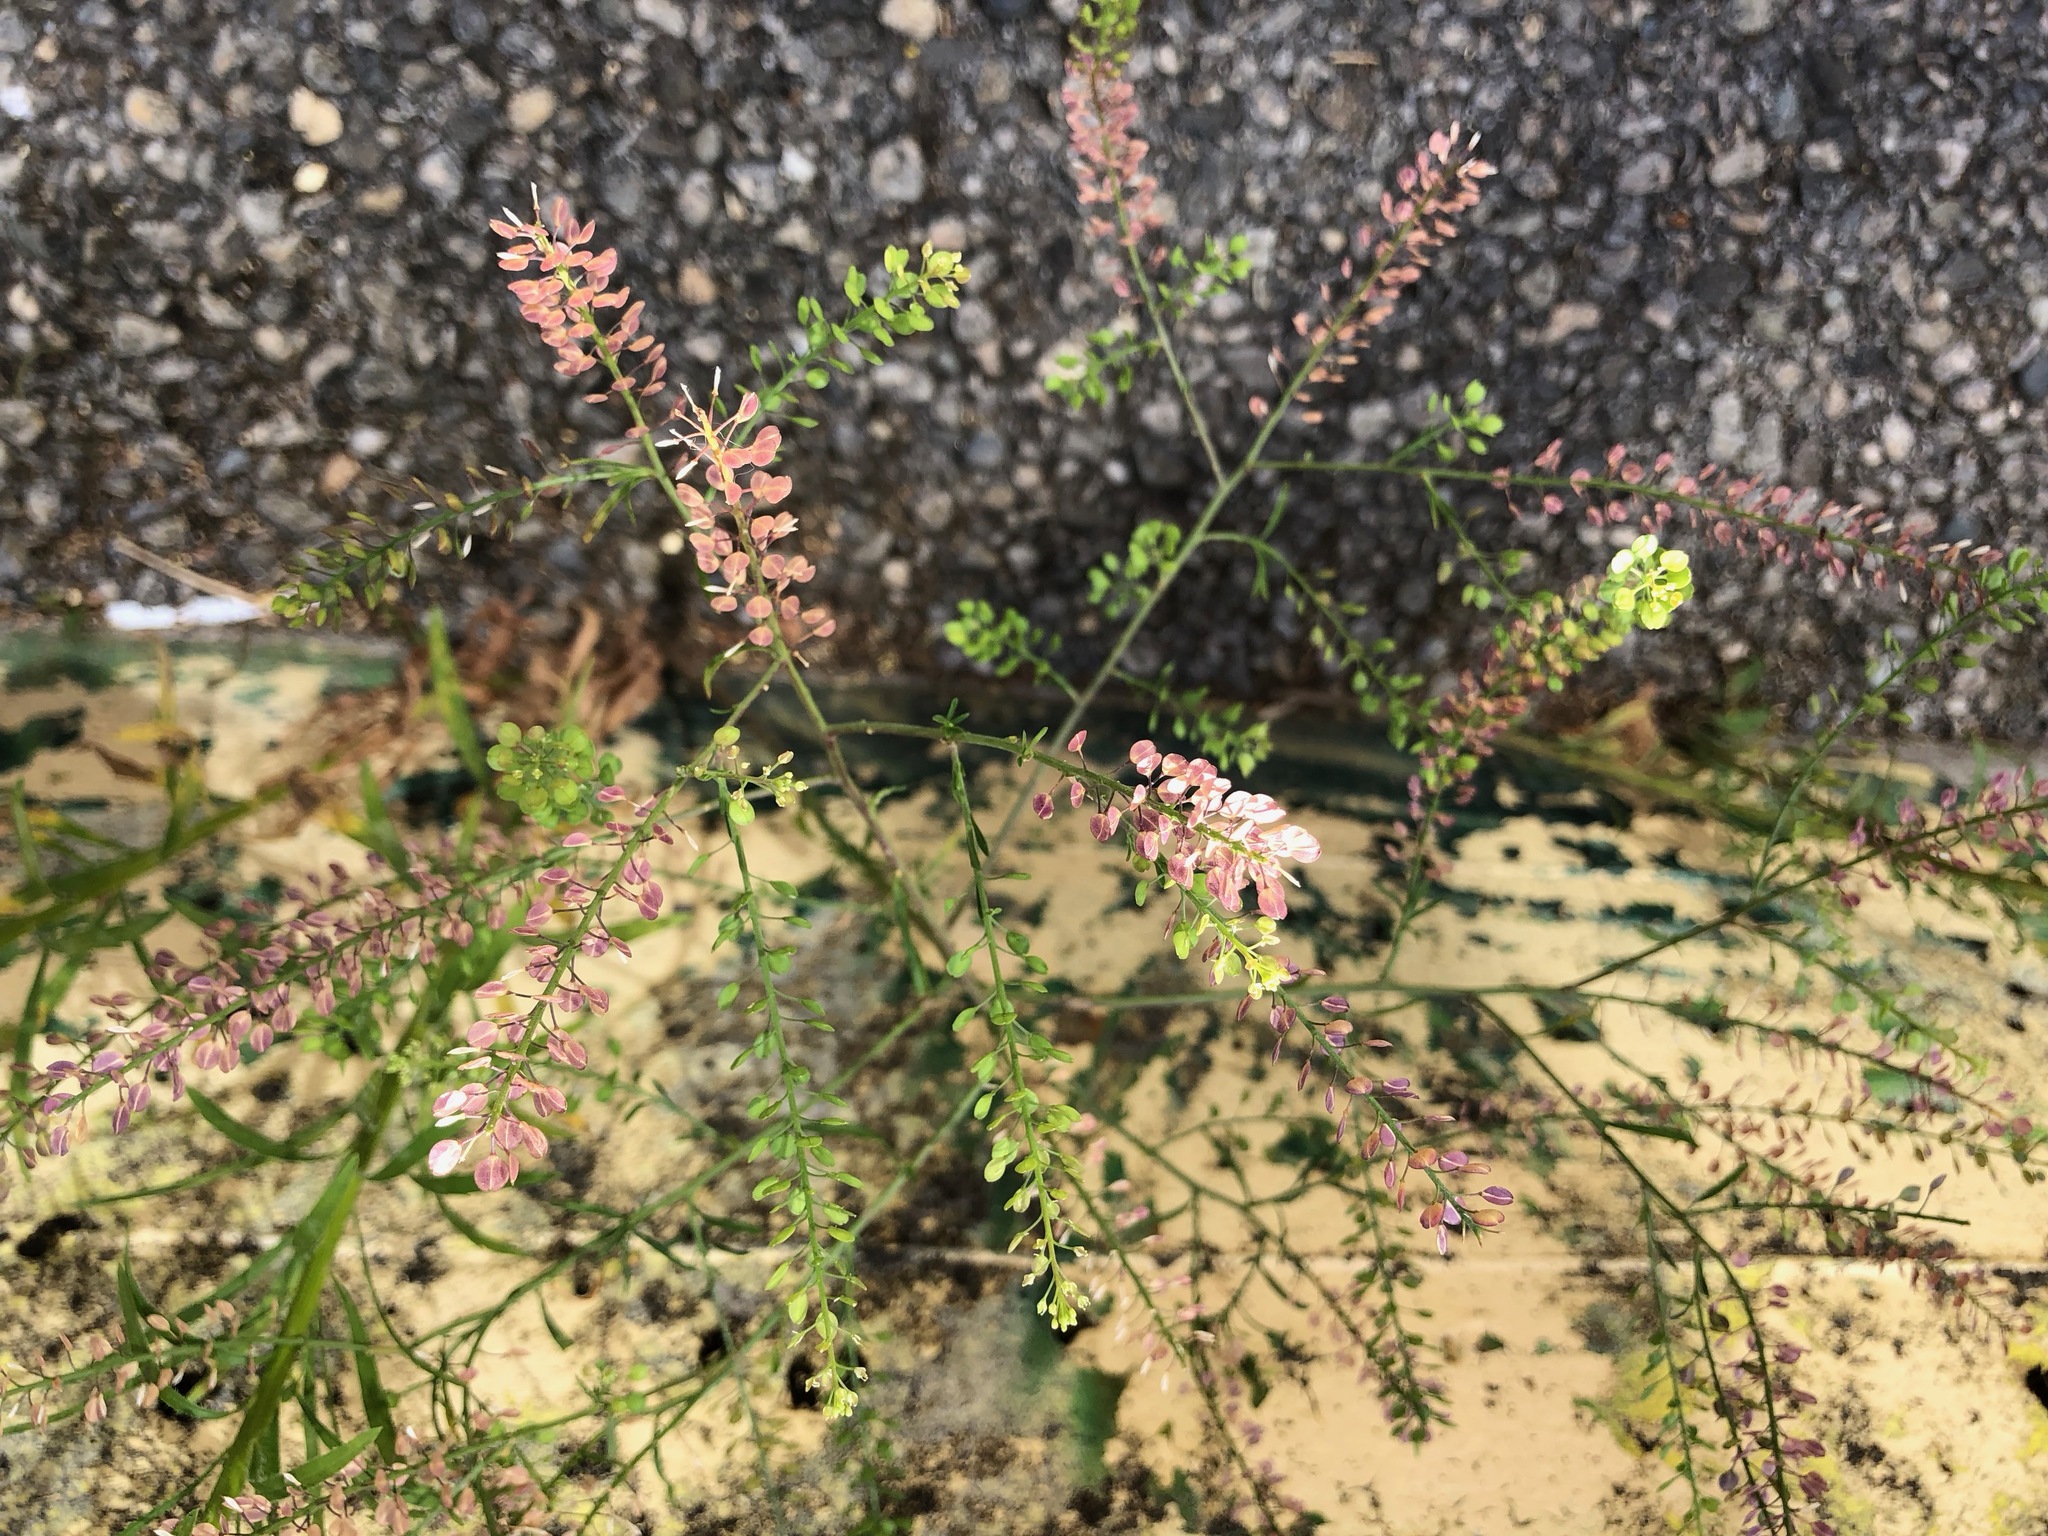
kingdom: Plantae
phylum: Tracheophyta
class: Magnoliopsida
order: Brassicales
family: Brassicaceae
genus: Lepidium
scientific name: Lepidium virginicum
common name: Least pepperwort
